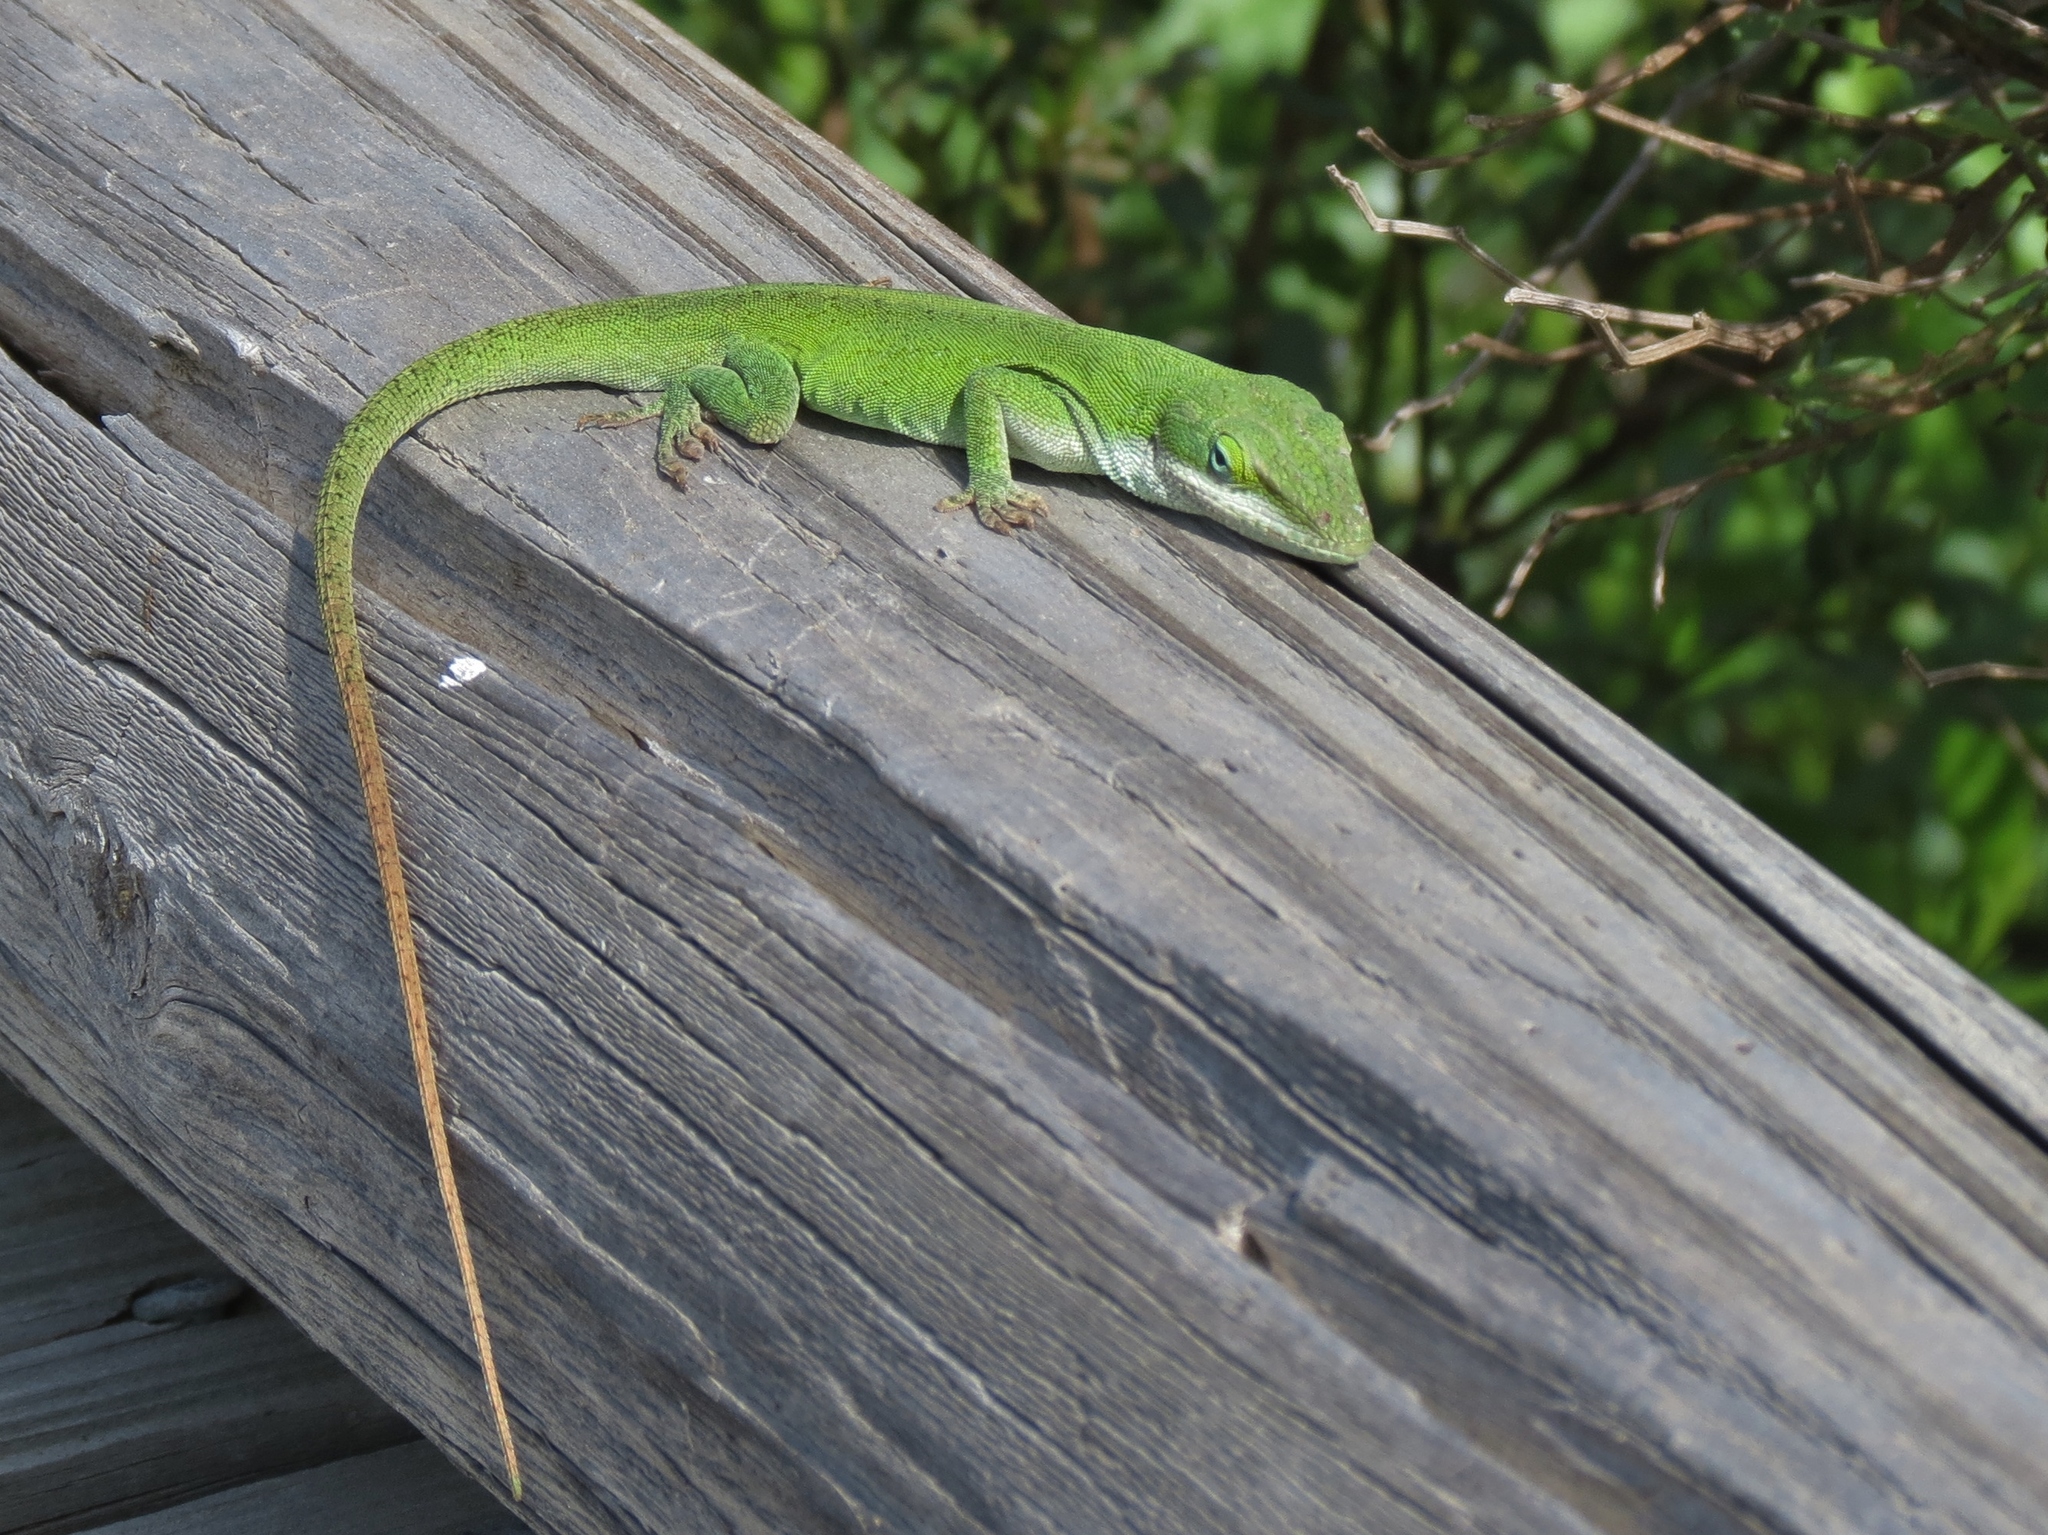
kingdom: Animalia
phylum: Chordata
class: Squamata
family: Dactyloidae
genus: Anolis
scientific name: Anolis carolinensis
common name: Green anole
